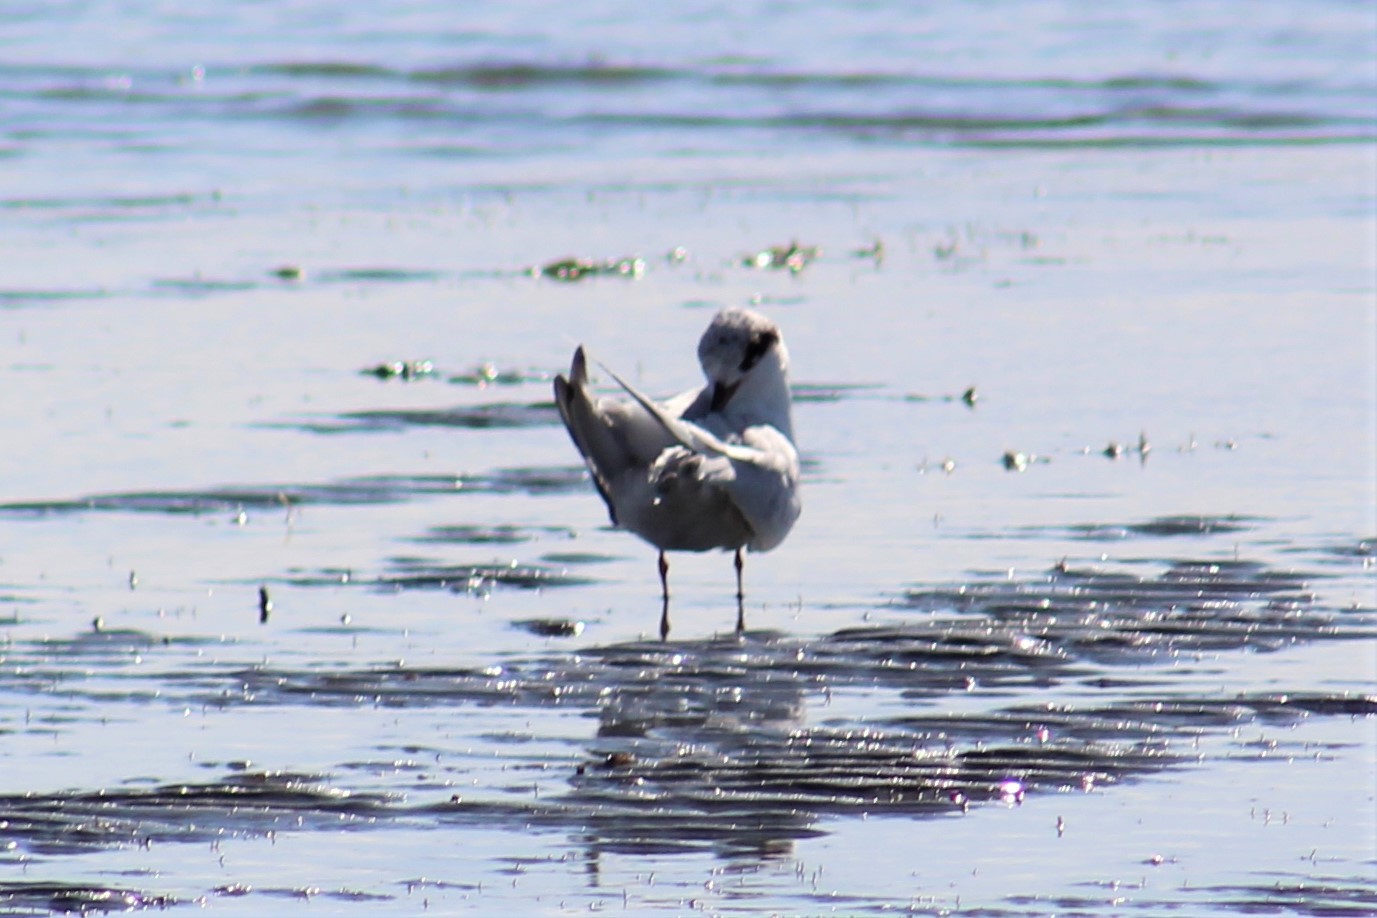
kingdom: Animalia
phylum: Chordata
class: Aves
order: Charadriiformes
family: Laridae
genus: Sterna
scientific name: Sterna forsteri
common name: Forster's tern
